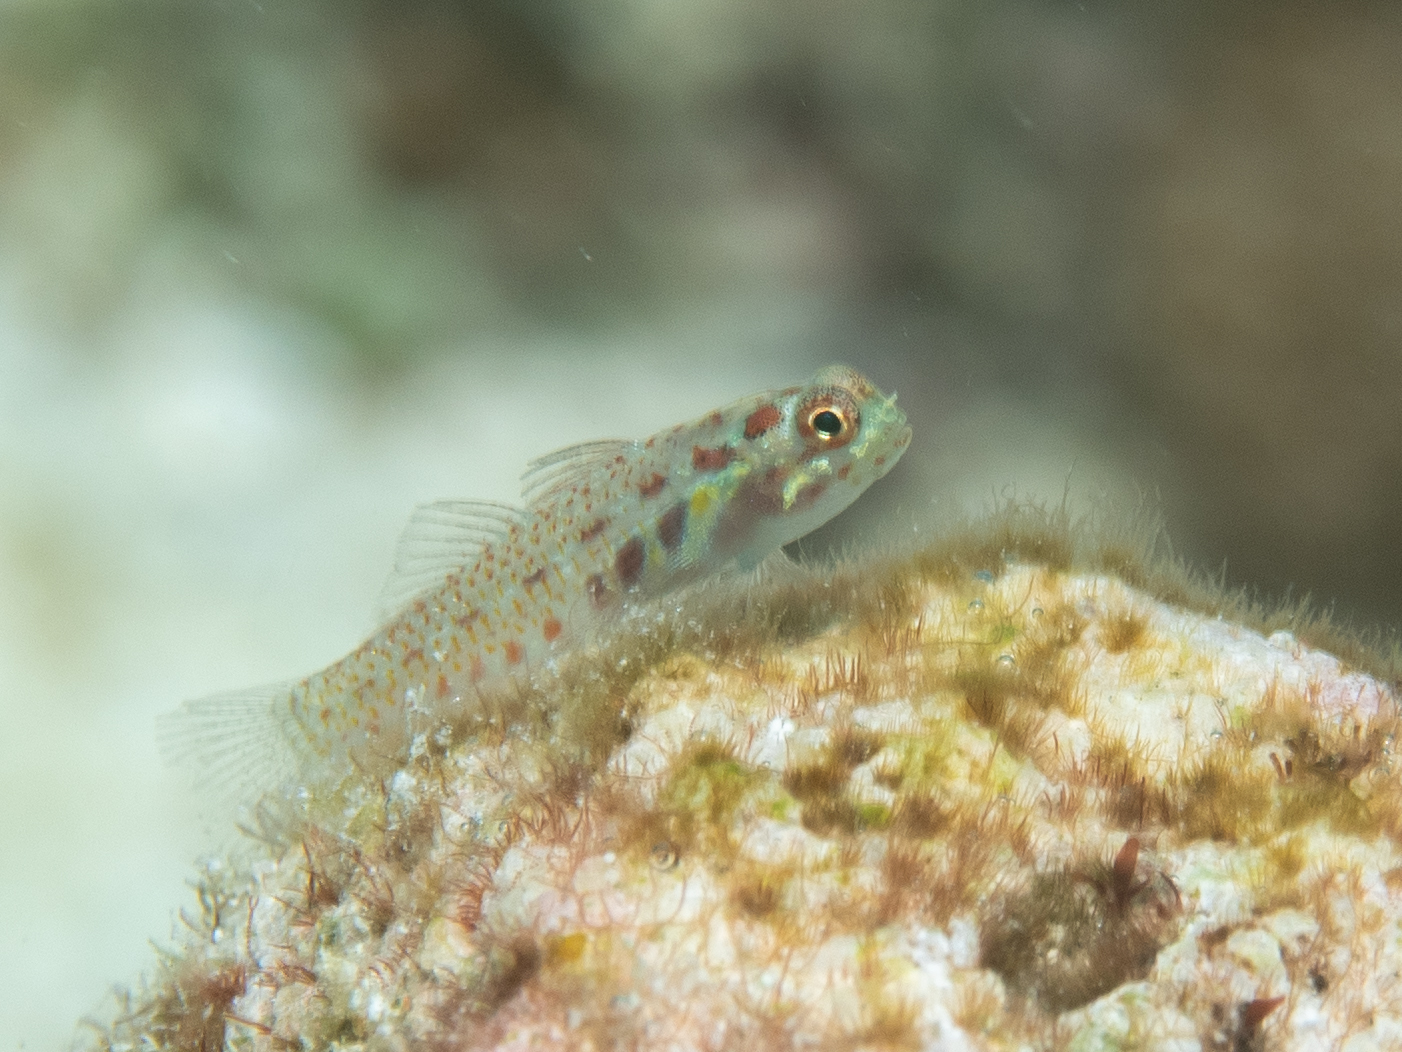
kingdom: Animalia
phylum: Chordata
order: Perciformes
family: Gobiidae
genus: Eviota
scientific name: Eviota teresae
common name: Terry's dwarfgoby
